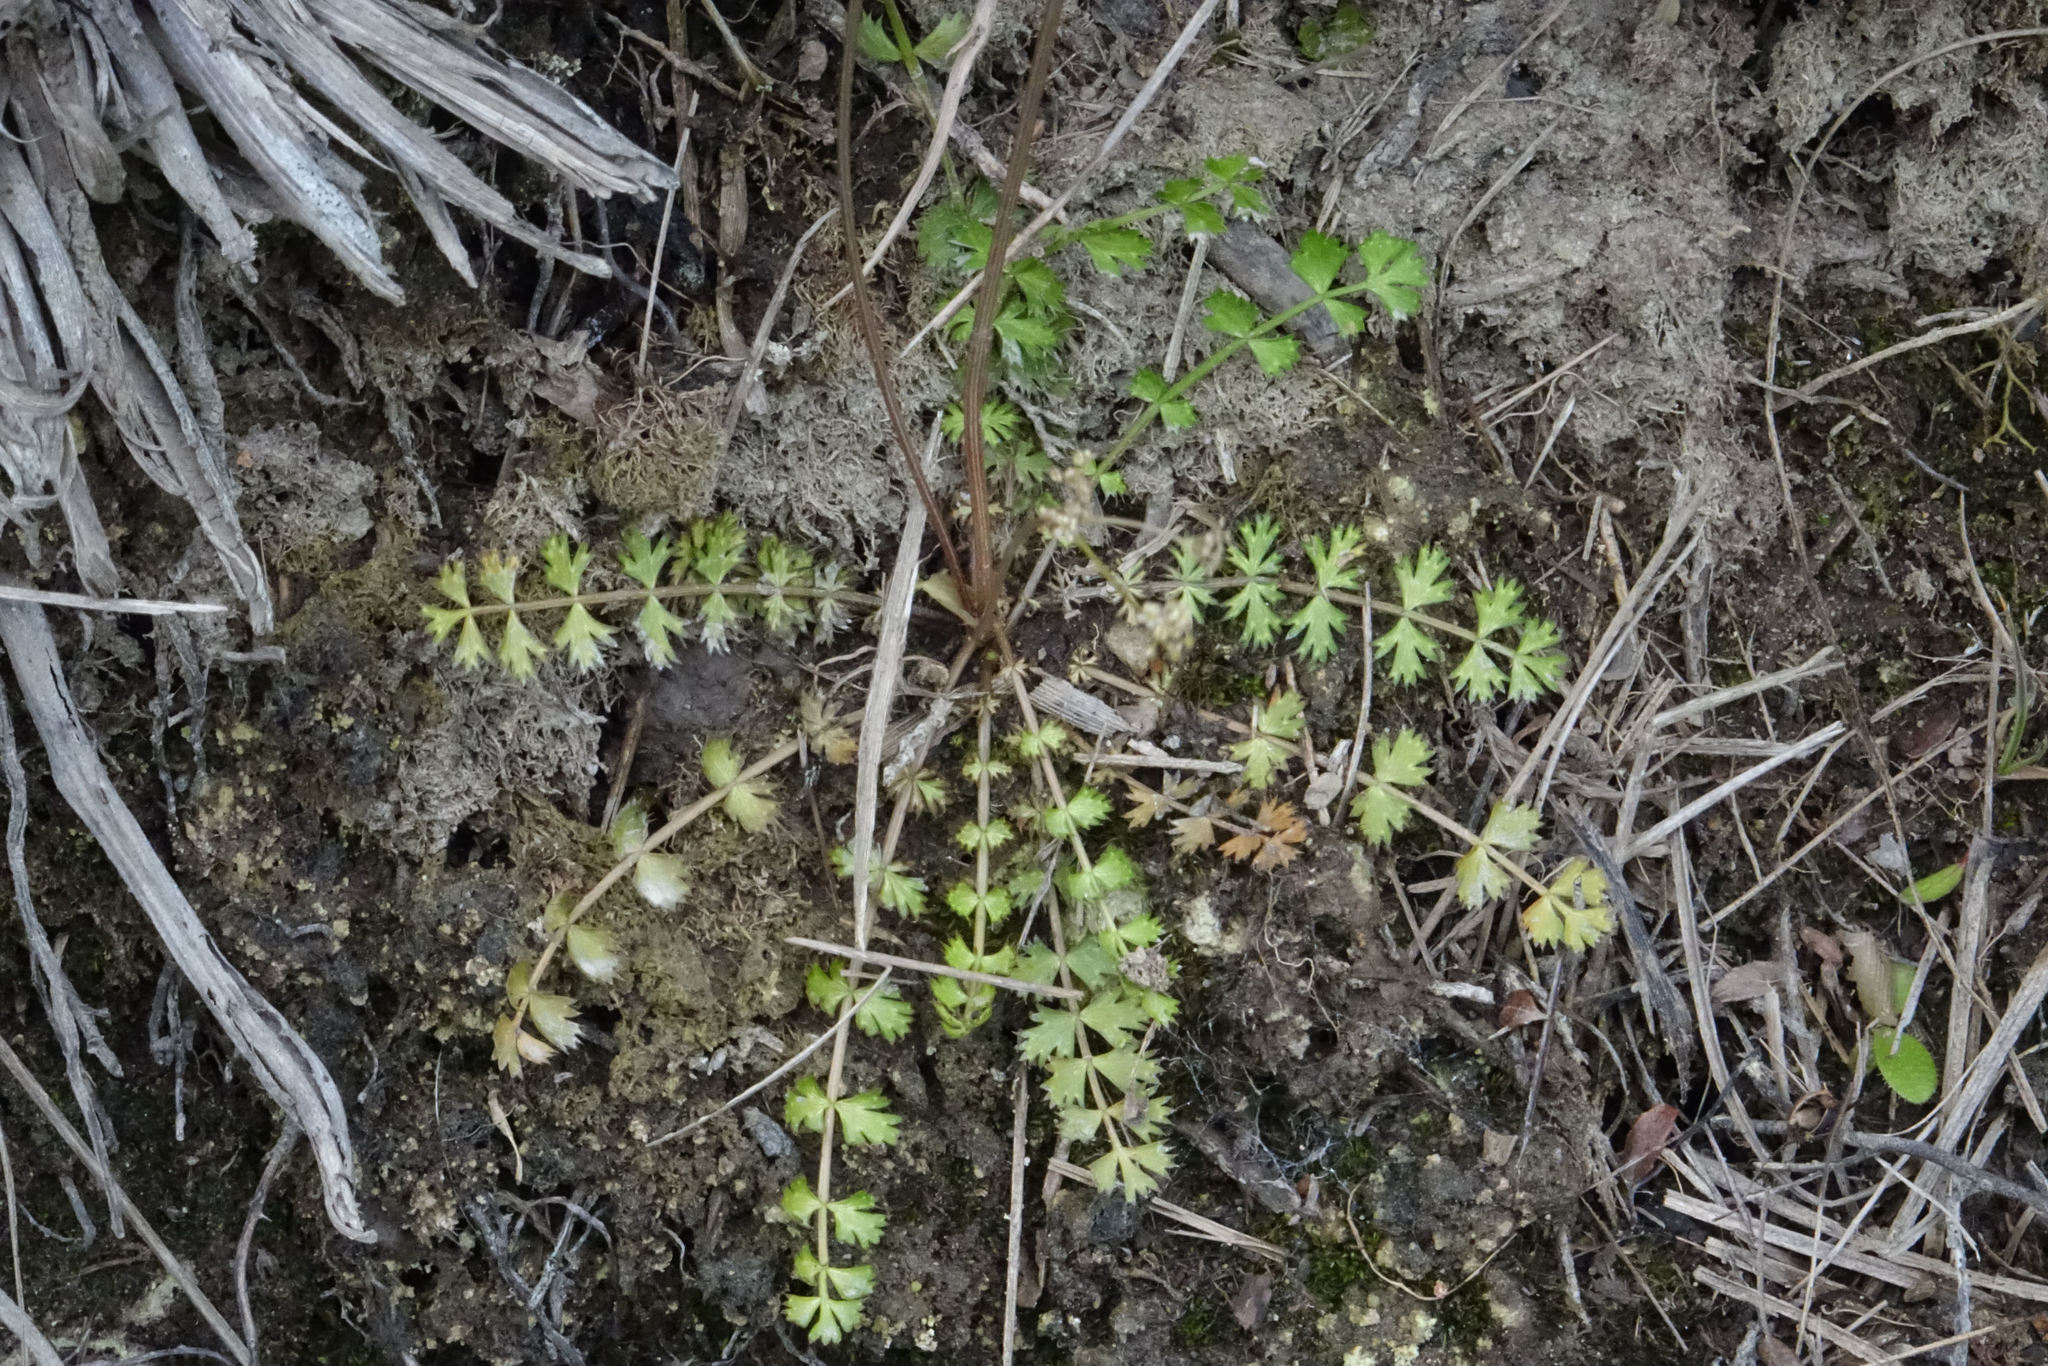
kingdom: Plantae
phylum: Tracheophyta
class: Magnoliopsida
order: Apiales
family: Apiaceae
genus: Anisotome
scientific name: Anisotome aromatica
